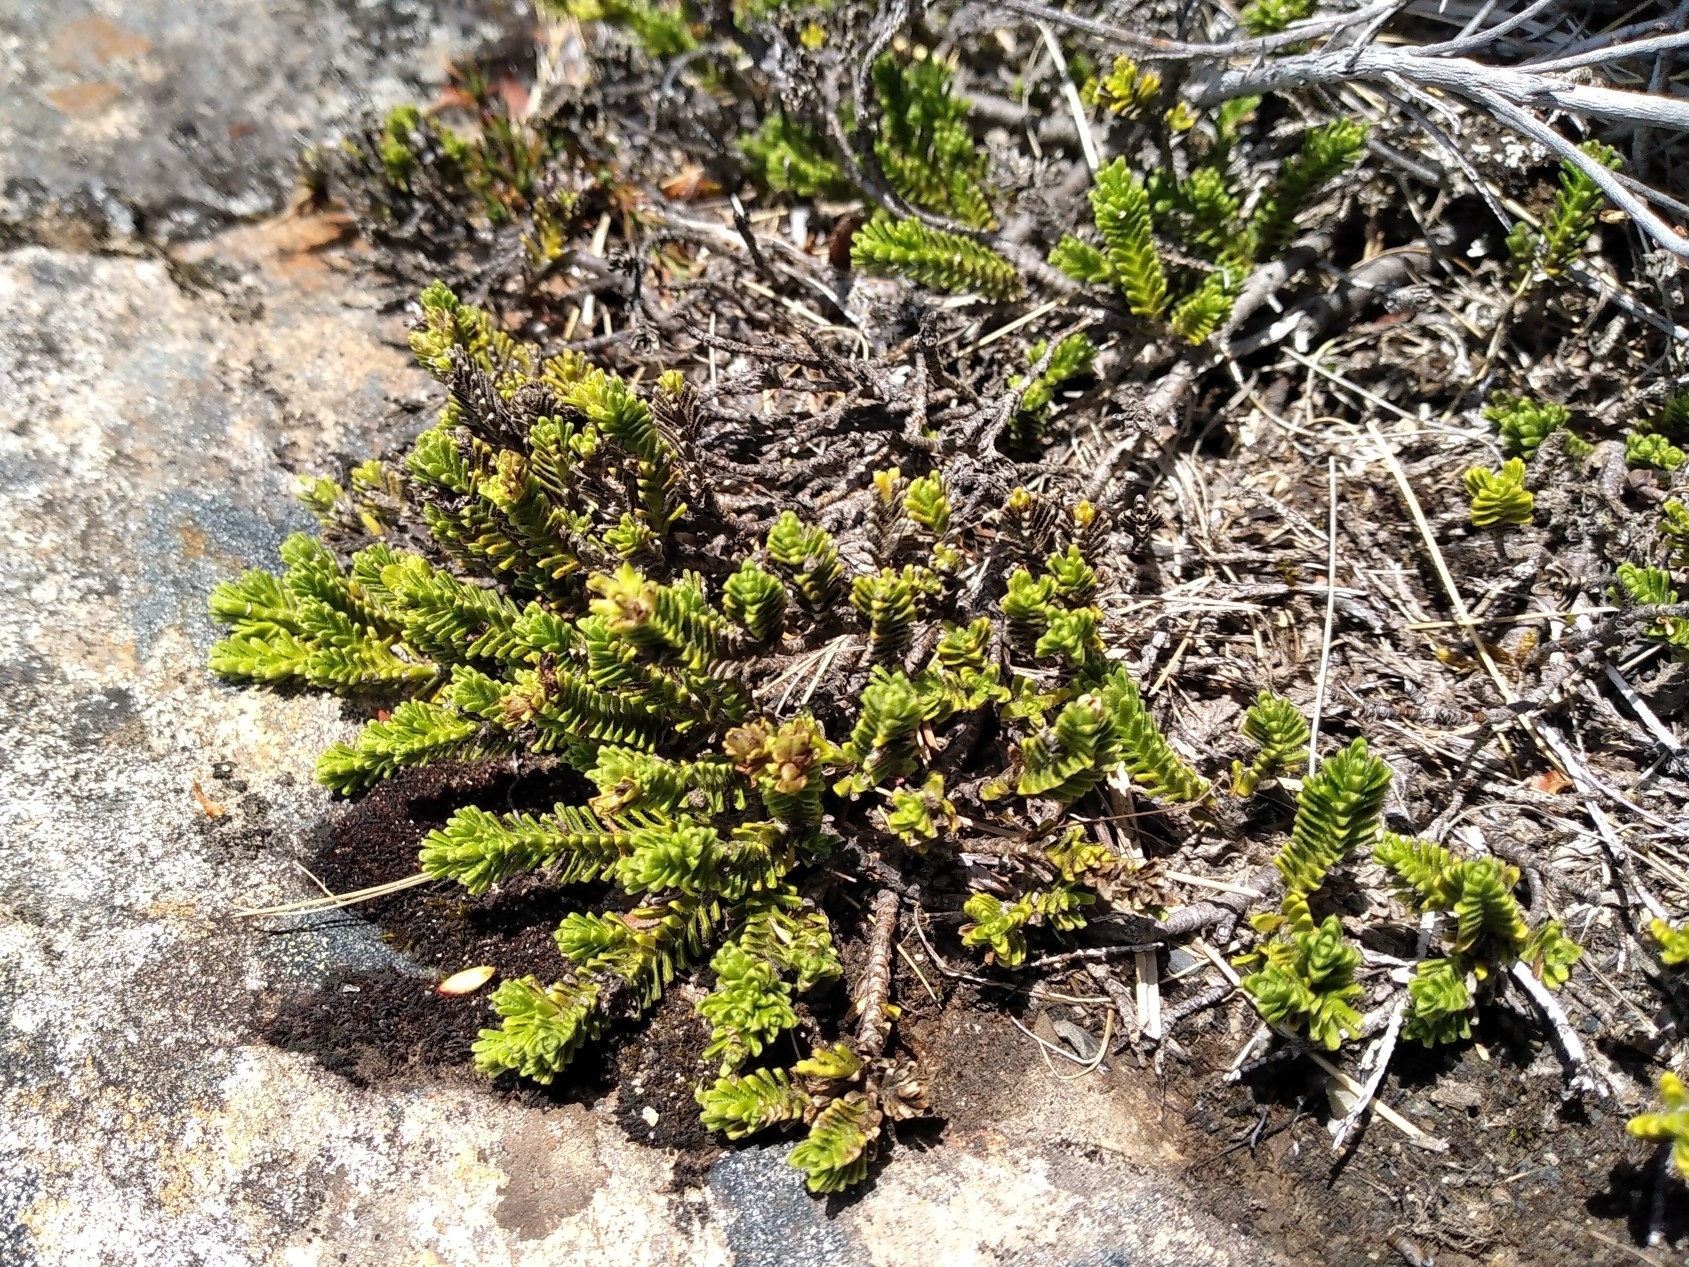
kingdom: Plantae
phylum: Tracheophyta
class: Magnoliopsida
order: Lamiales
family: Plantaginaceae
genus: Veronica
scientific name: Veronica hookeri
